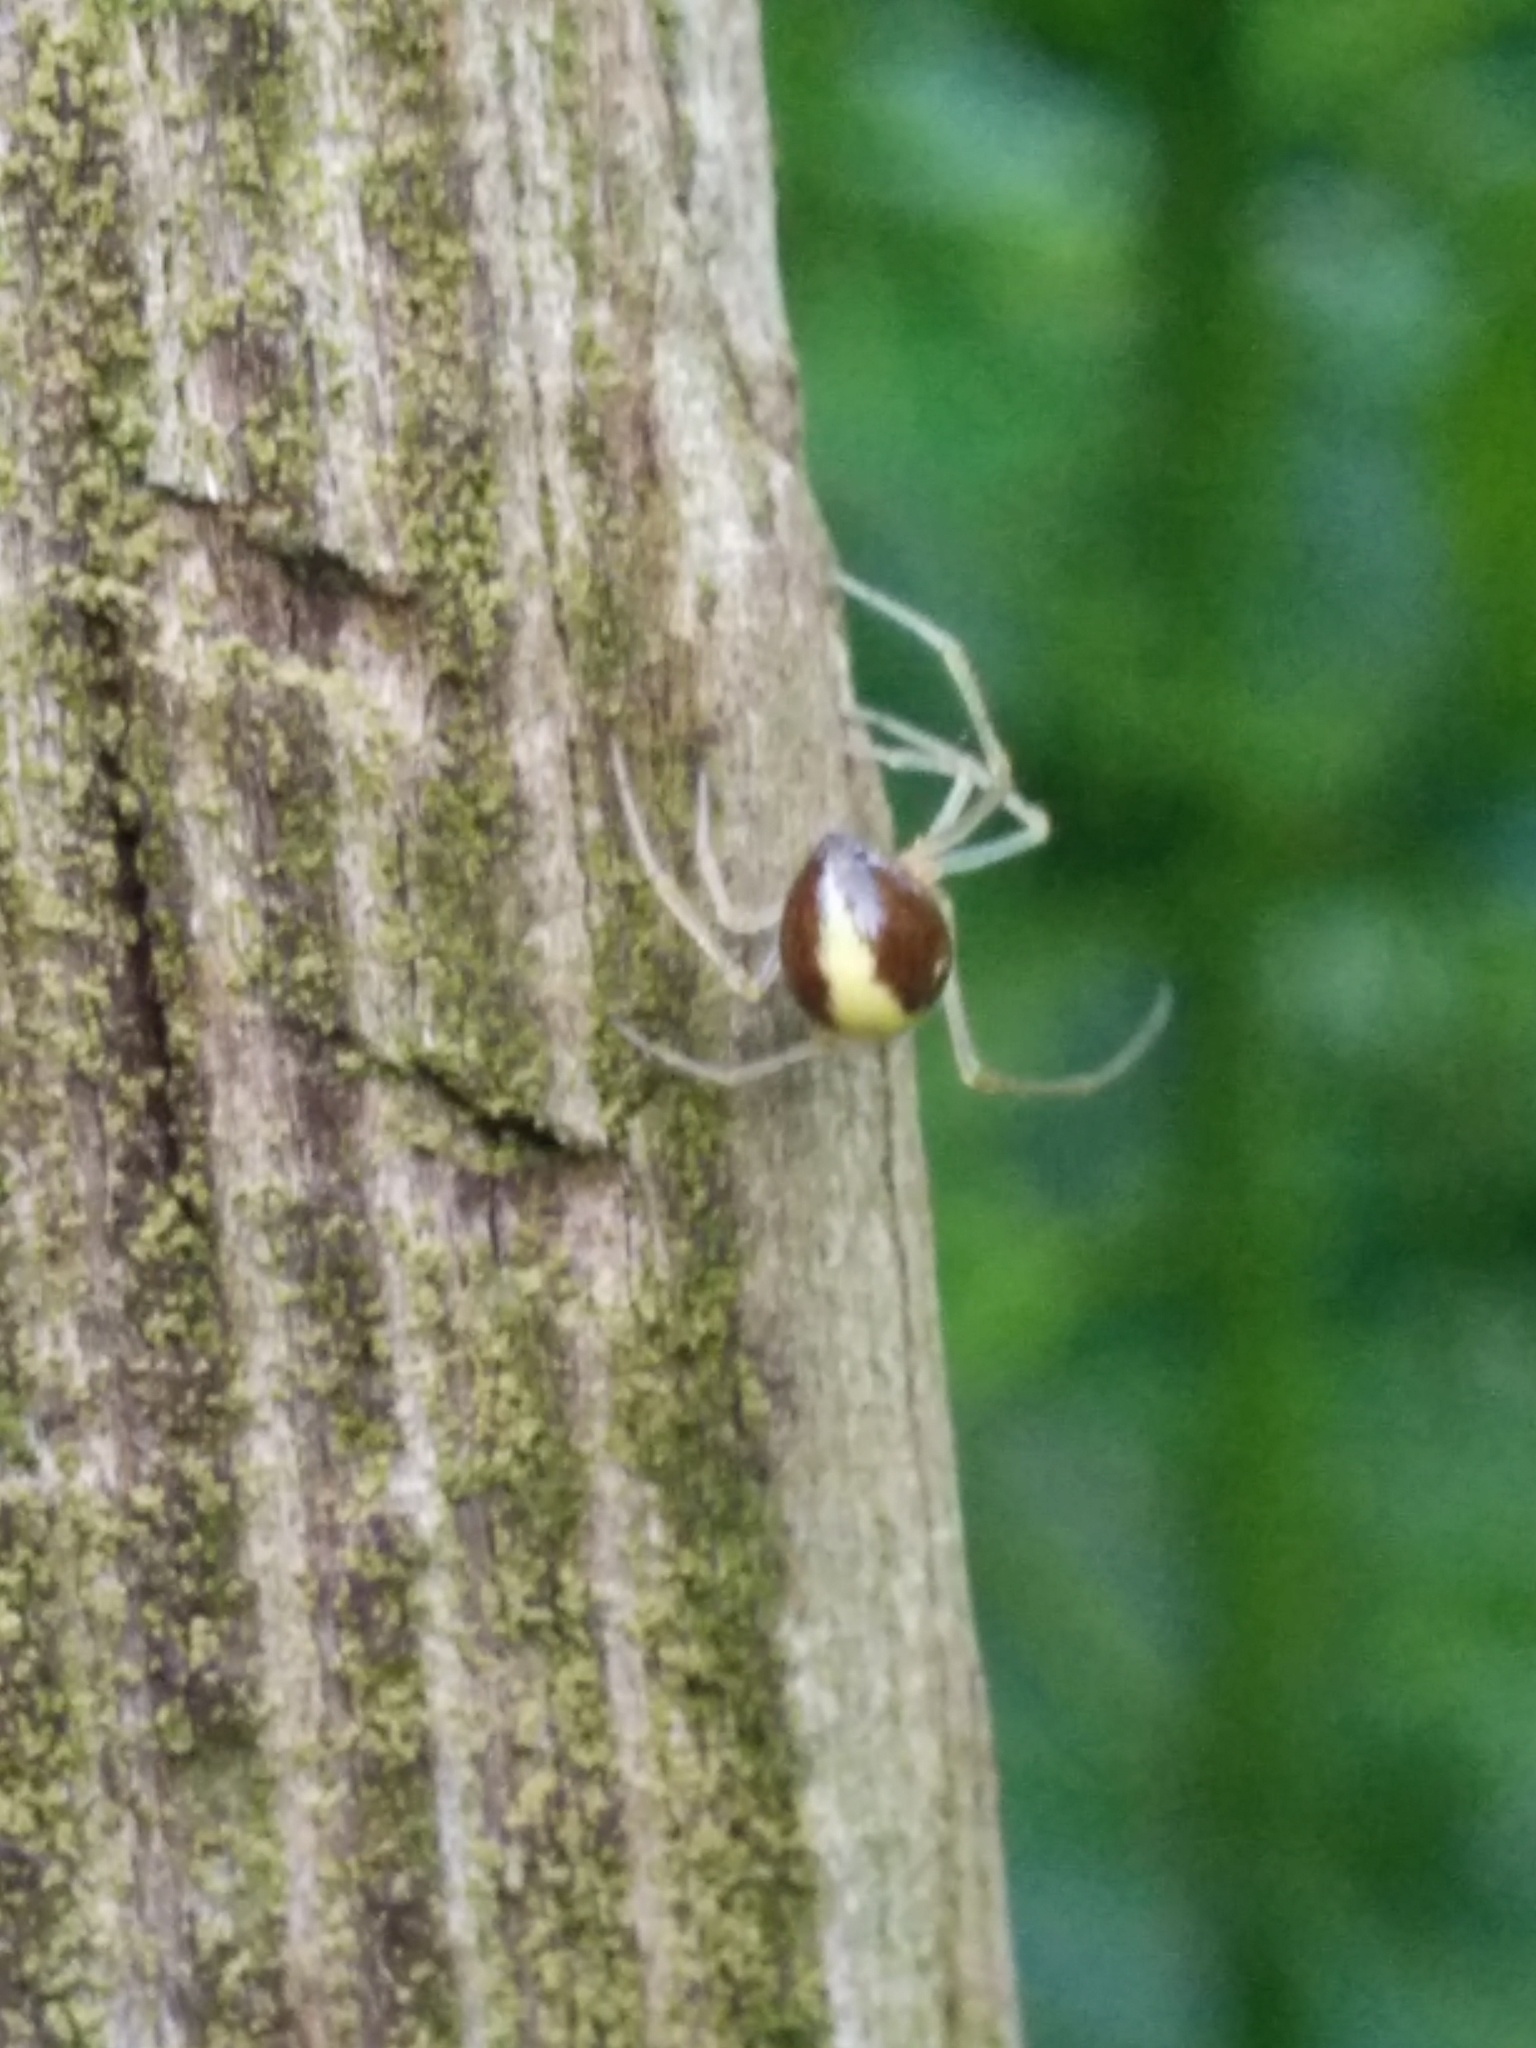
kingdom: Animalia
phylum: Arthropoda
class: Arachnida
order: Araneae
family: Theridiidae
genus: Neottiura
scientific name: Neottiura bimaculata
